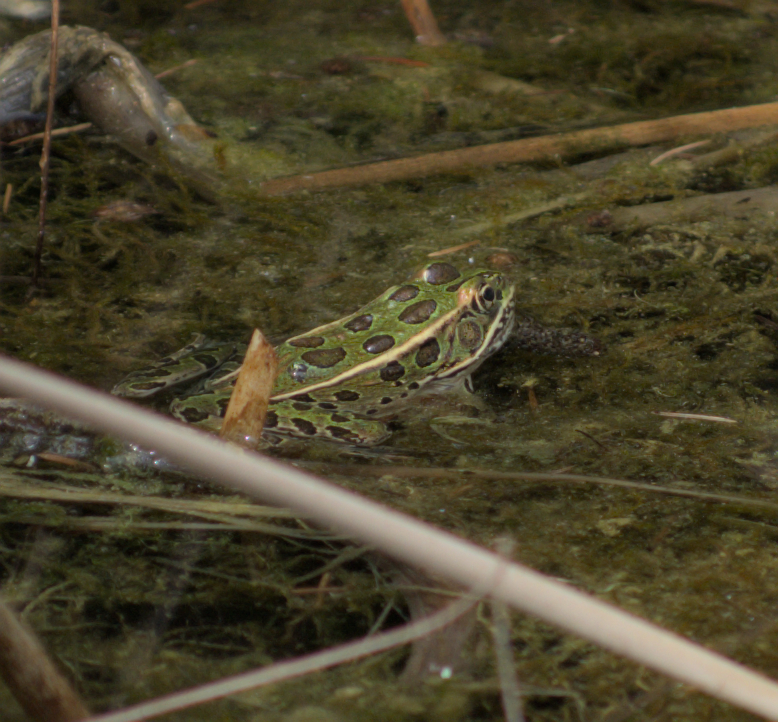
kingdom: Animalia
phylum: Chordata
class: Amphibia
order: Anura
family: Ranidae
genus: Lithobates
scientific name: Lithobates pipiens
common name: Northern leopard frog
